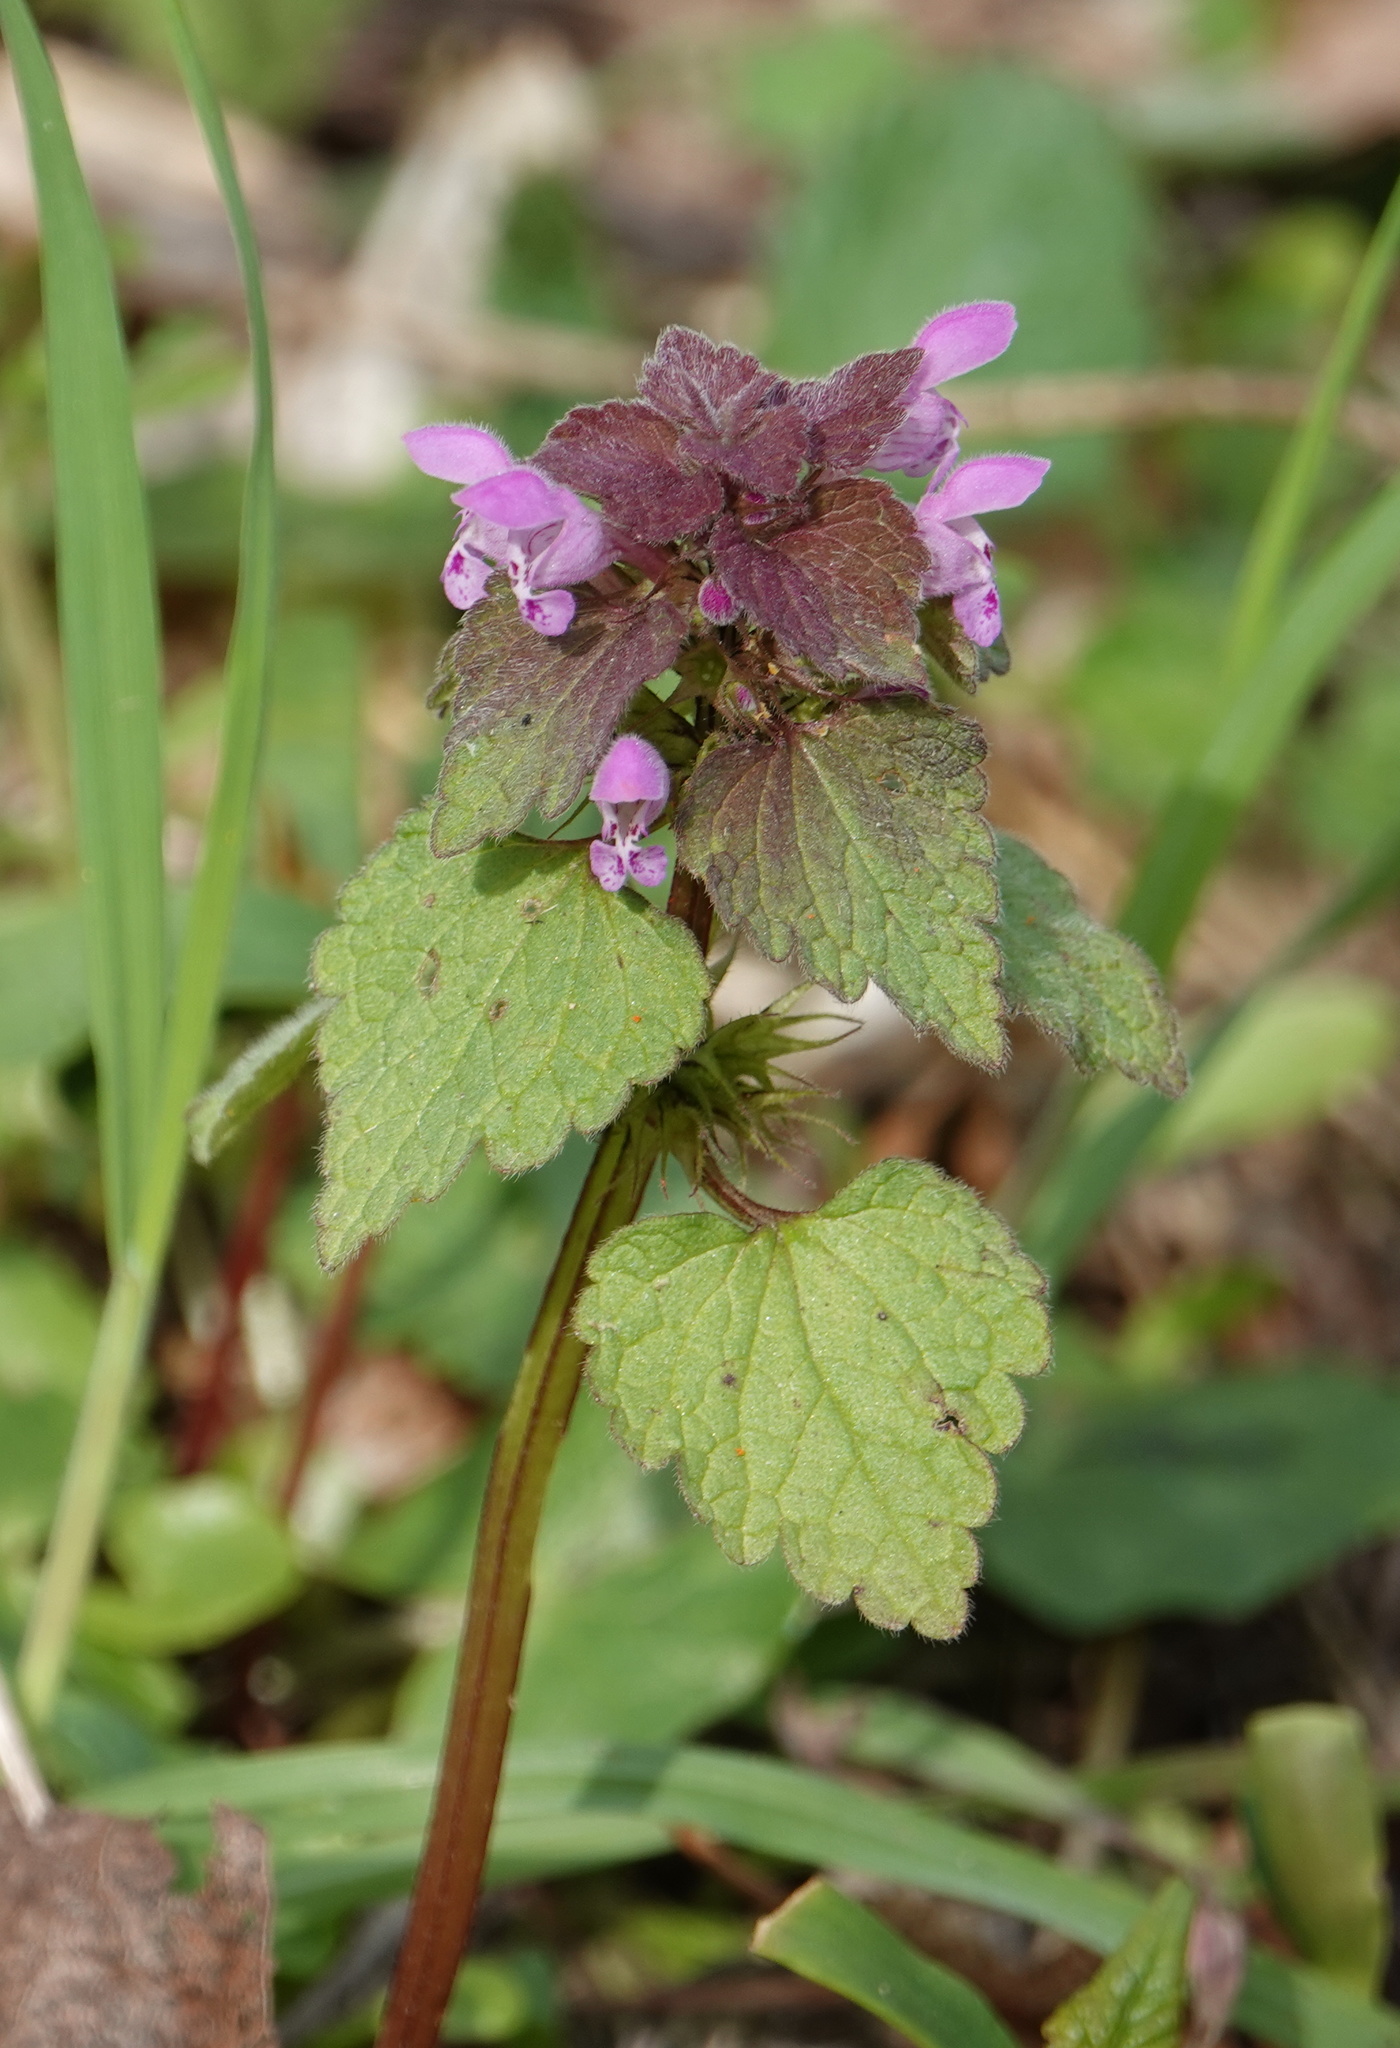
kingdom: Plantae
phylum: Tracheophyta
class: Magnoliopsida
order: Lamiales
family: Lamiaceae
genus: Lamium
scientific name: Lamium purpureum
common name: Red dead-nettle
